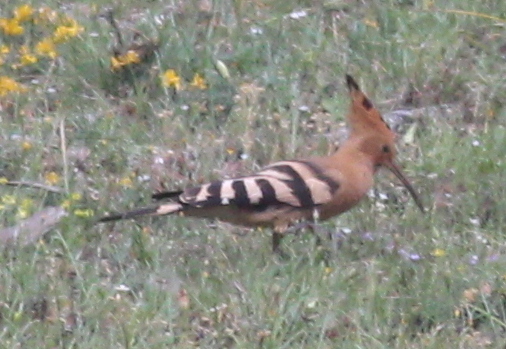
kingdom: Animalia
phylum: Chordata
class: Aves
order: Bucerotiformes
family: Upupidae
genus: Upupa
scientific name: Upupa epops
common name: Eurasian hoopoe
